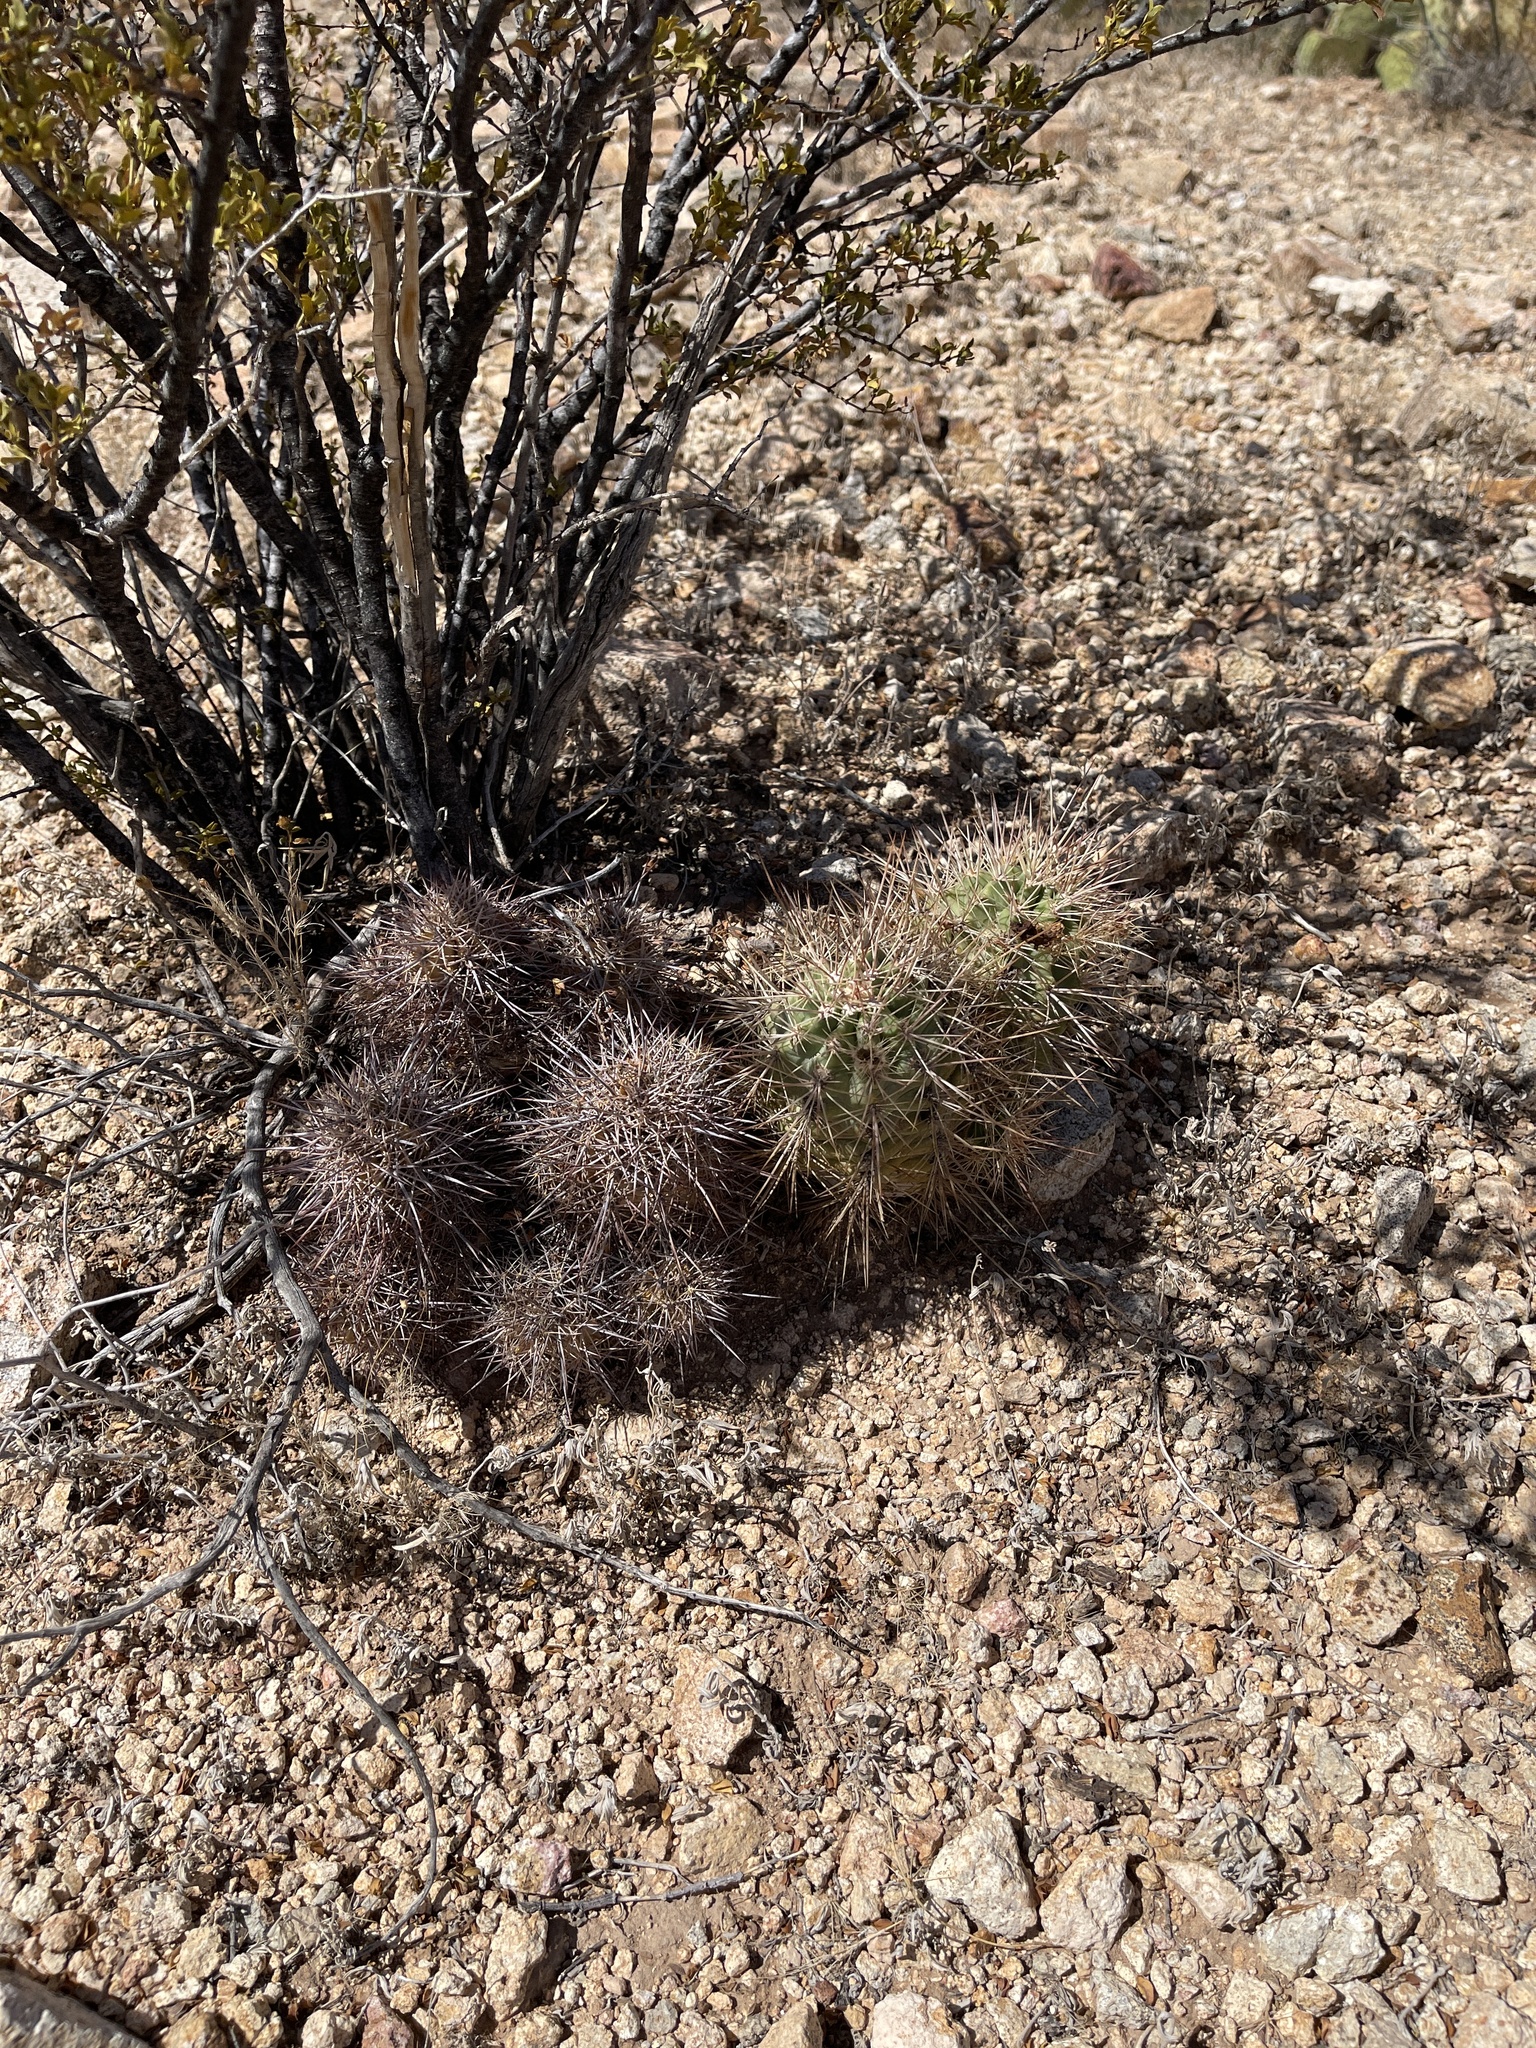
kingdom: Plantae
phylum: Tracheophyta
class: Magnoliopsida
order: Caryophyllales
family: Cactaceae
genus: Echinocereus
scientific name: Echinocereus coccineus
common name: Scarlet hedgehog cactus
